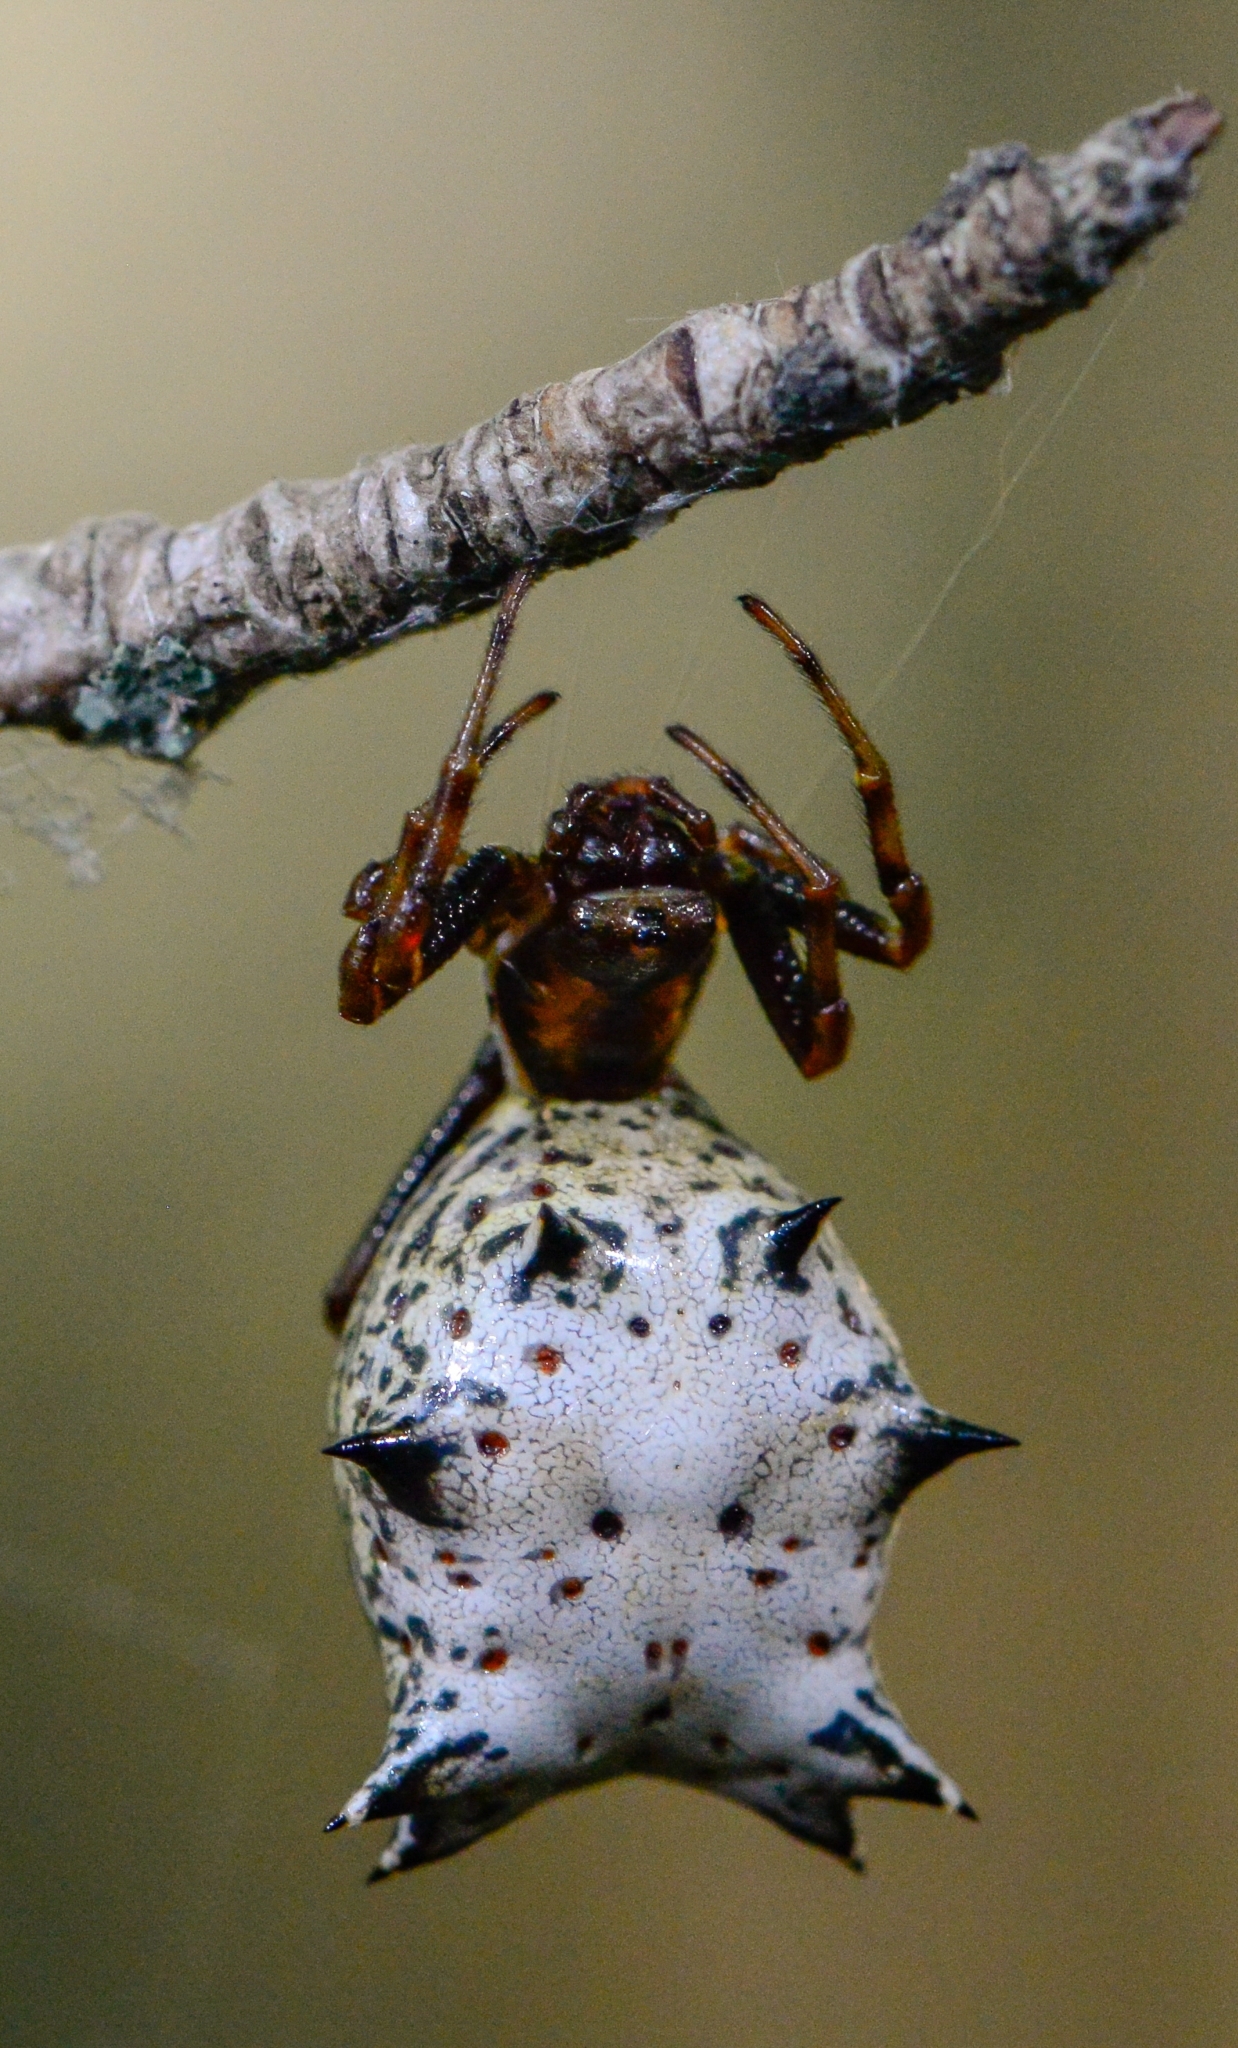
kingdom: Animalia
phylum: Arthropoda
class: Arachnida
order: Araneae
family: Araneidae
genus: Micrathena
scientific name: Micrathena gracilis
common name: Orb weavers
